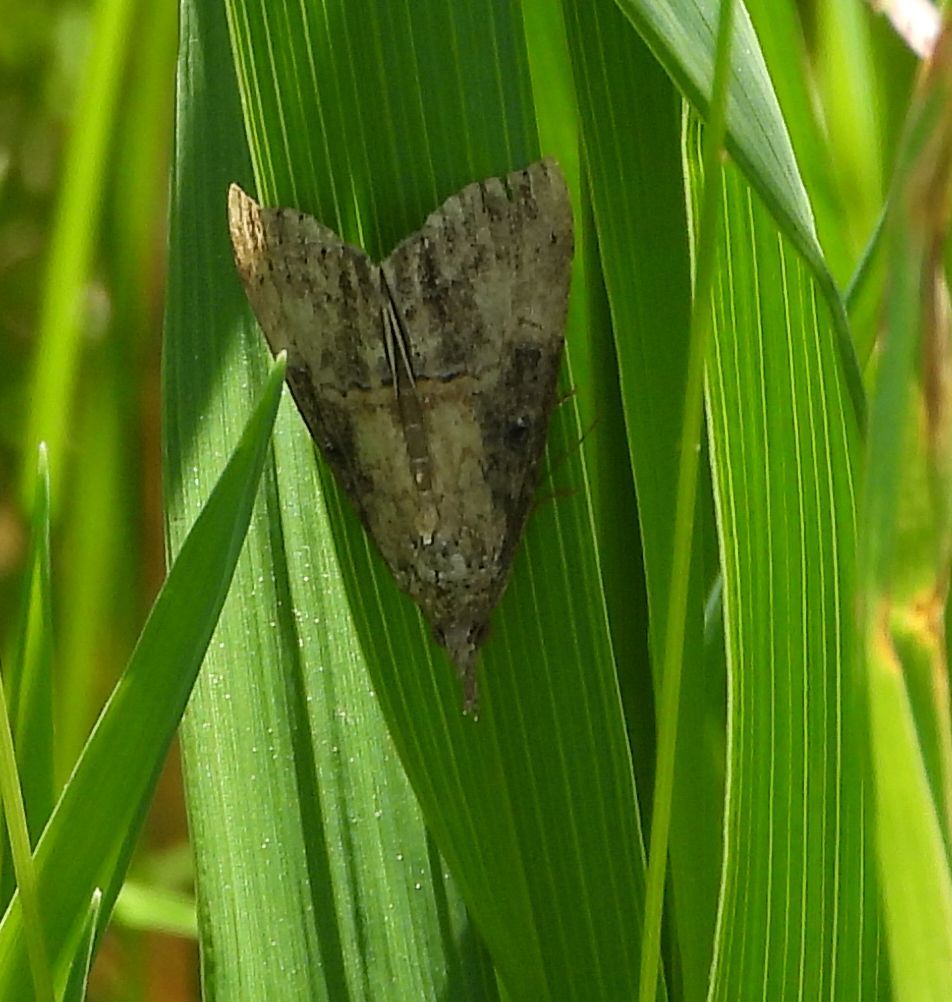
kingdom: Animalia
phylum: Arthropoda
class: Insecta
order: Lepidoptera
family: Erebidae
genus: Hypena
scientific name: Hypena scabra
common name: Green cloverworm
